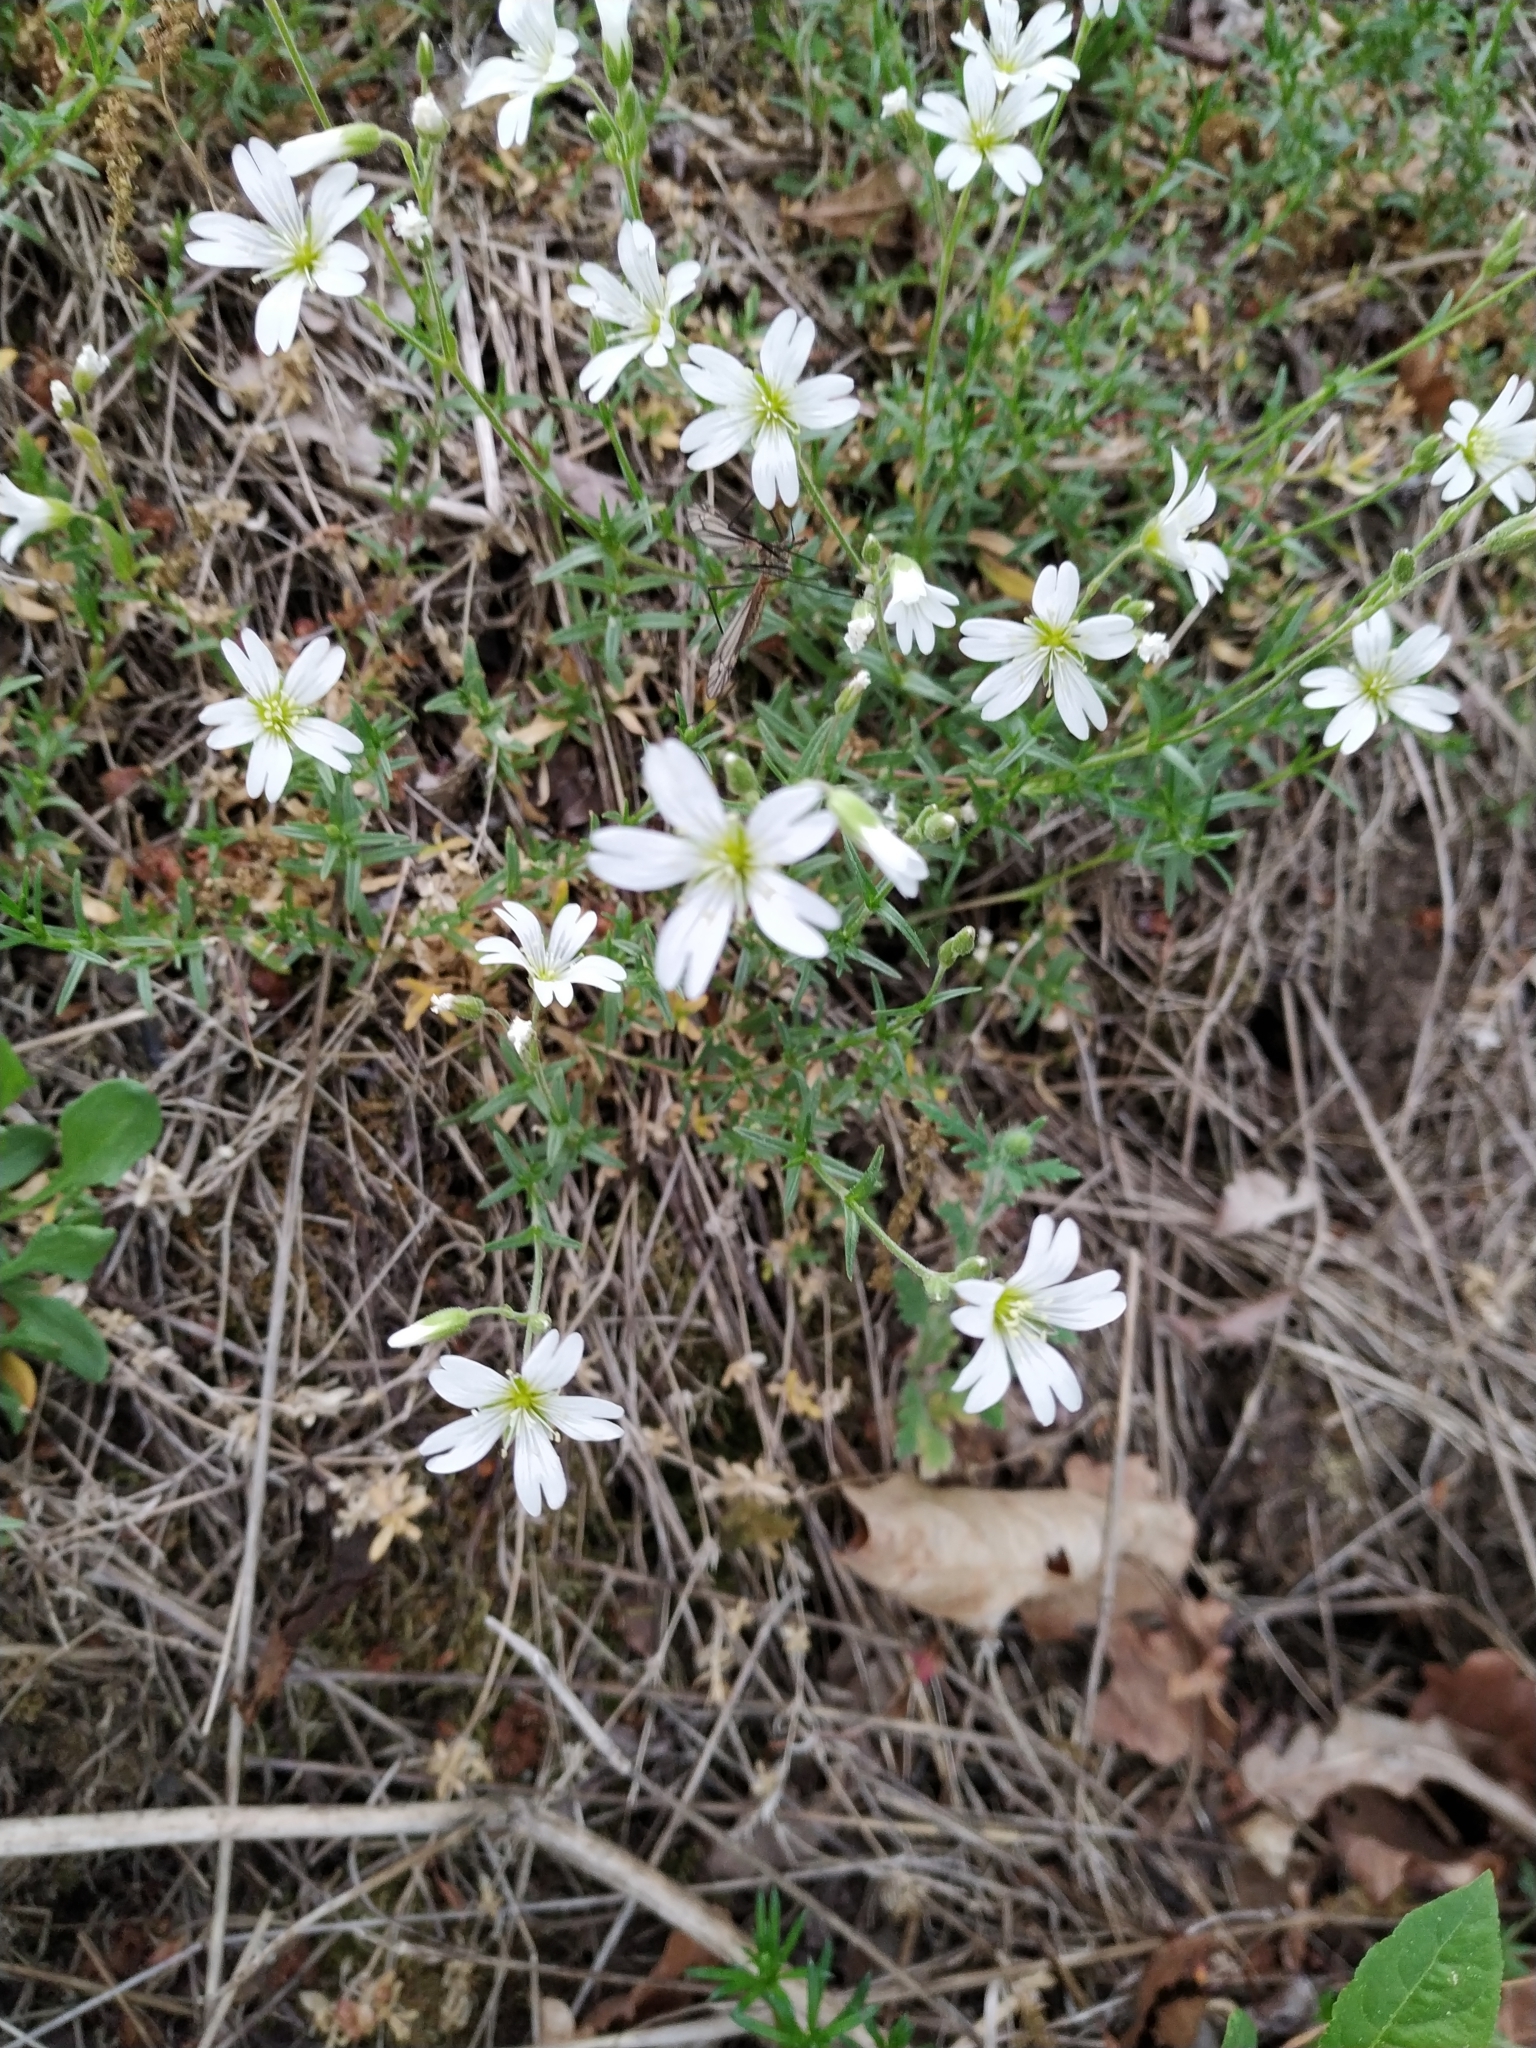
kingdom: Plantae
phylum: Tracheophyta
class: Magnoliopsida
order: Caryophyllales
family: Caryophyllaceae
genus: Cerastium
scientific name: Cerastium arvense
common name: Field mouse-ear
